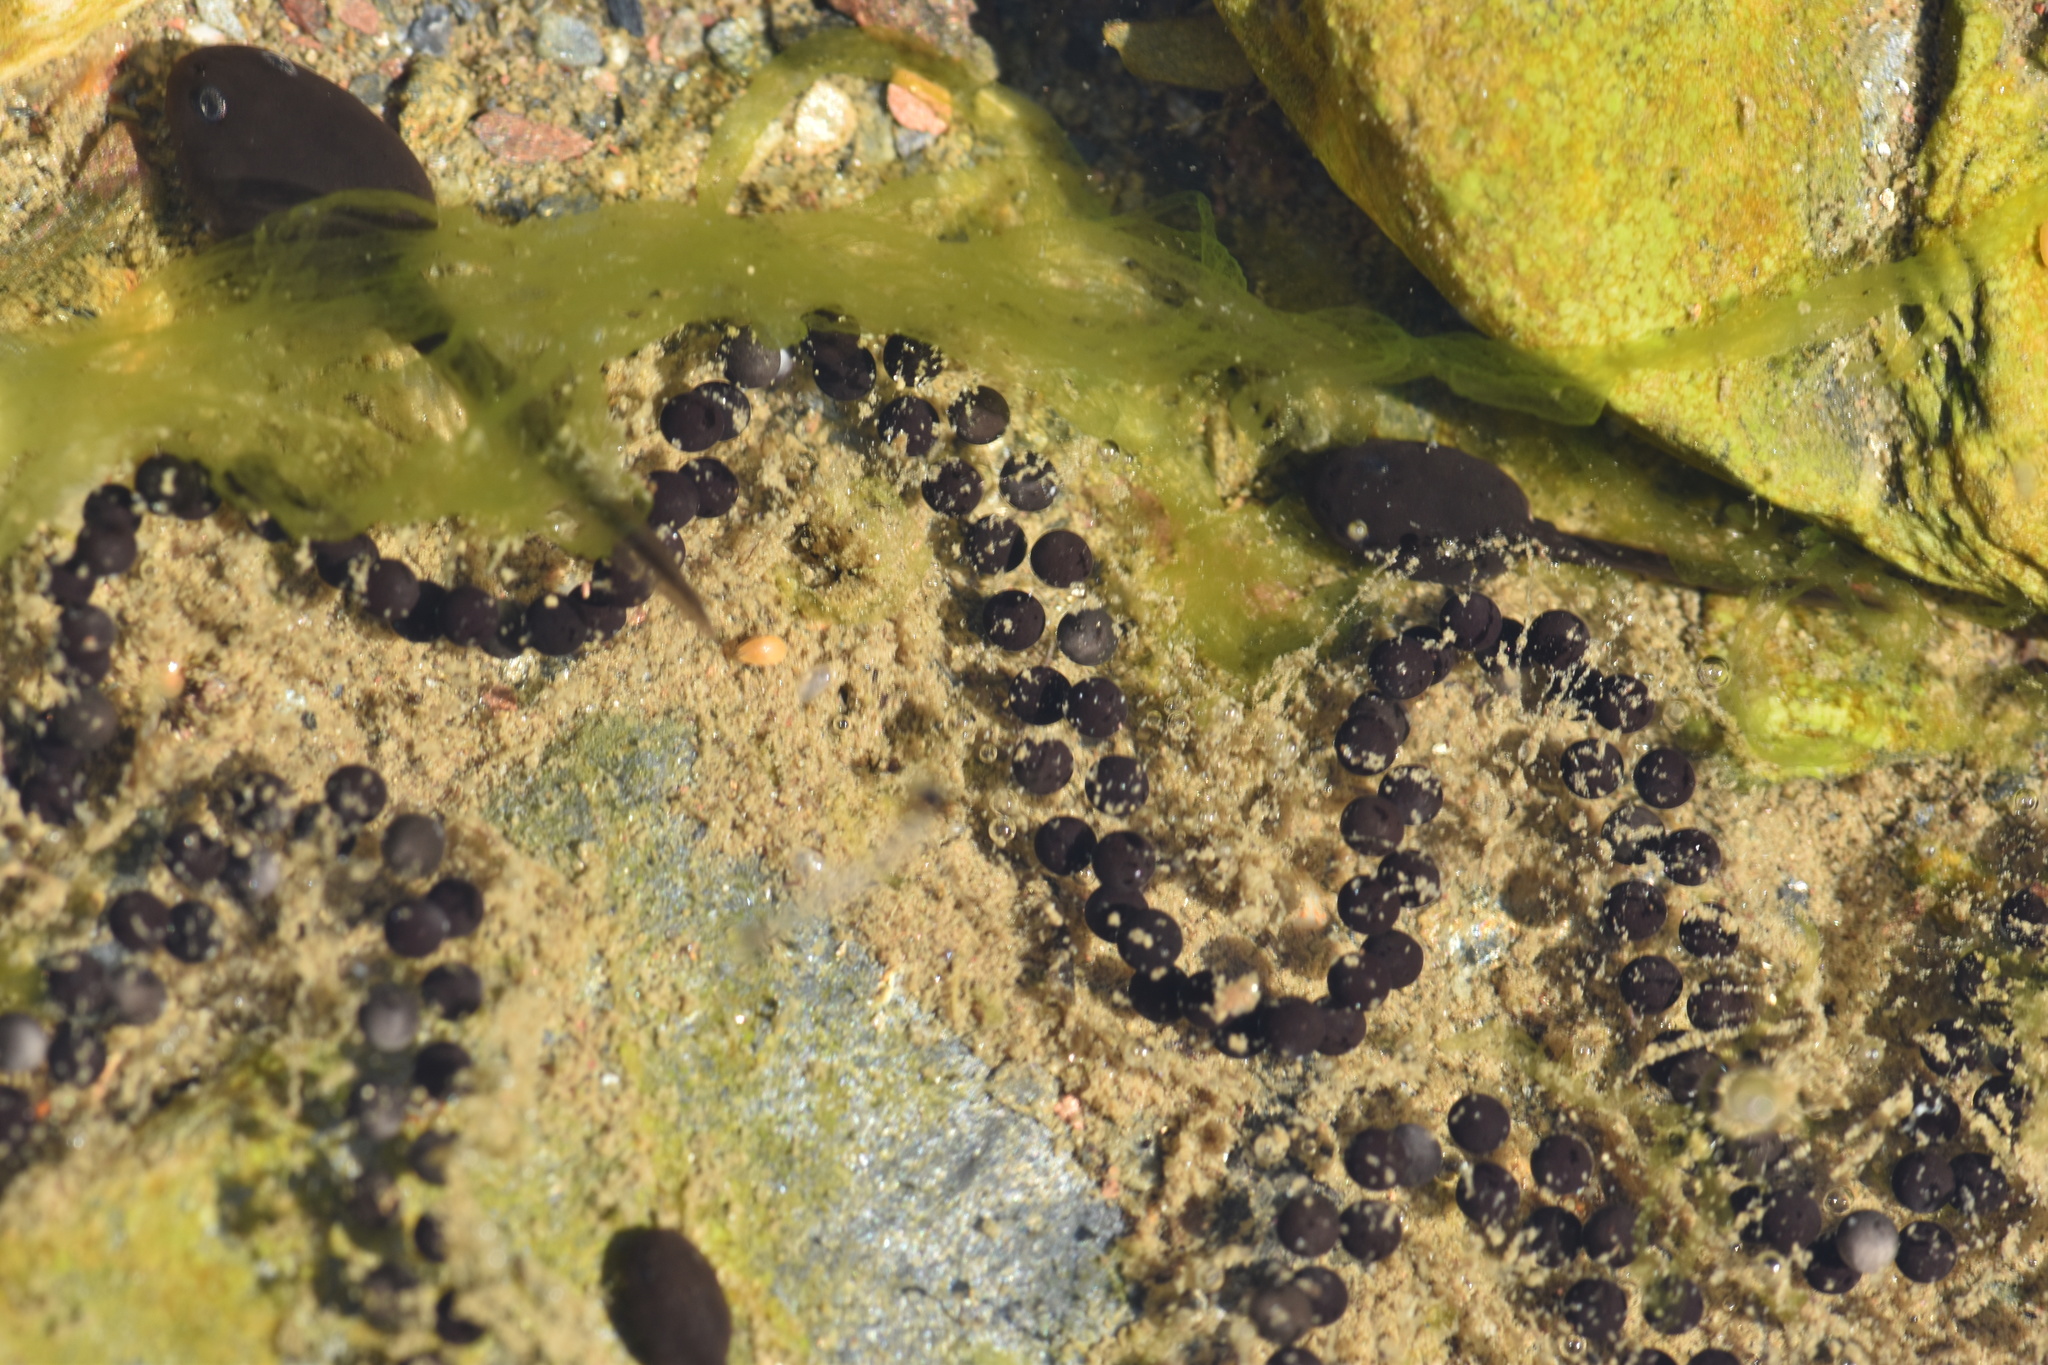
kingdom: Animalia
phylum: Chordata
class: Amphibia
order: Anura
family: Bufonidae
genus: Epidalea
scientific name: Epidalea calamita
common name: Natterjack toad
